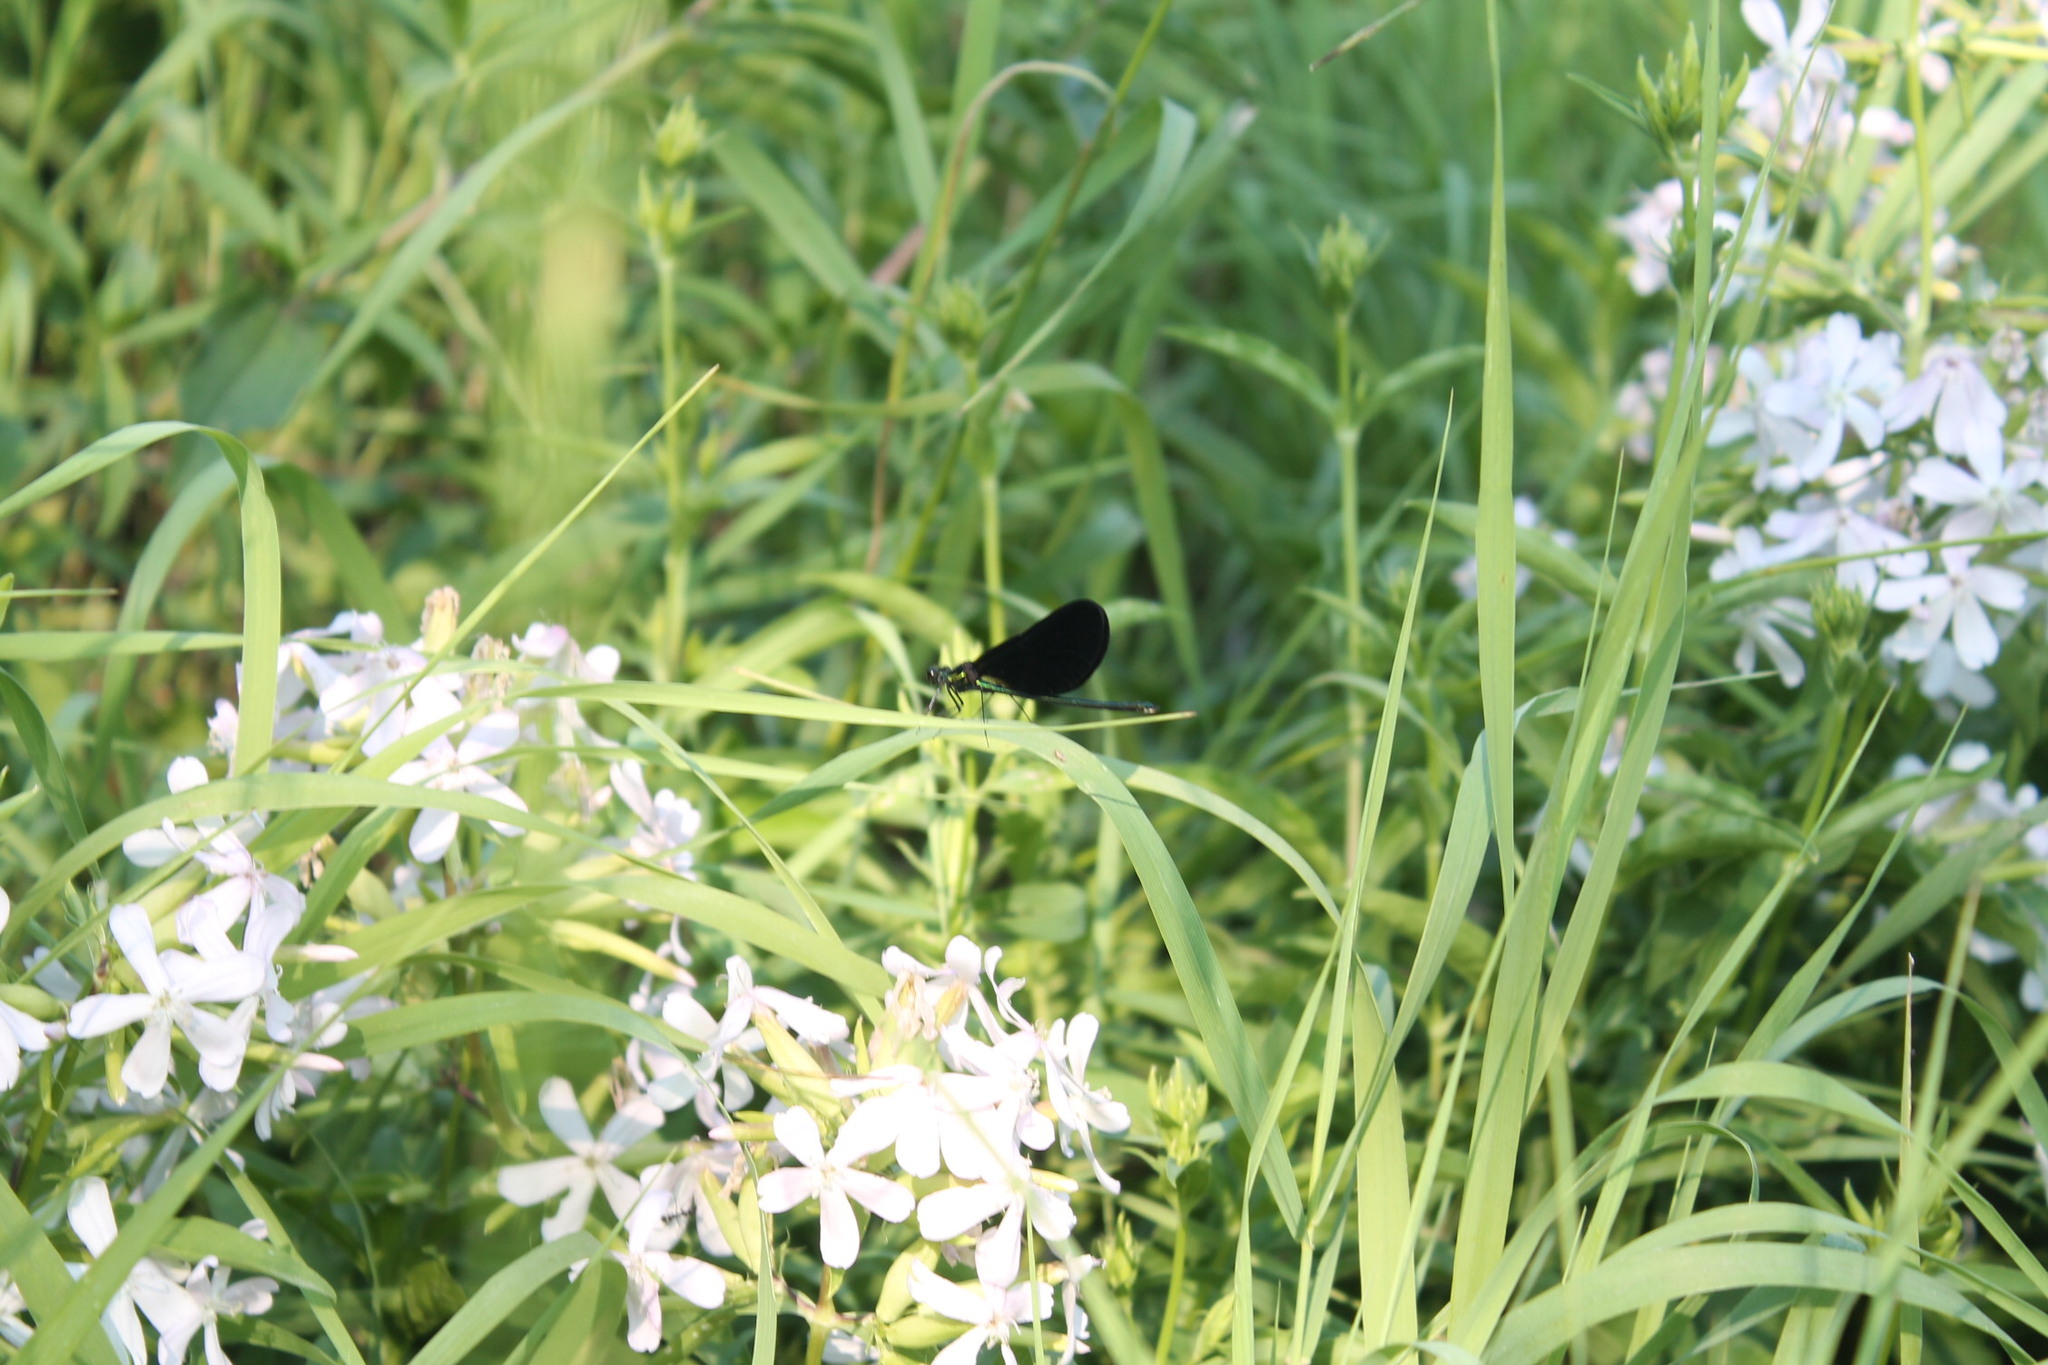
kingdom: Animalia
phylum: Arthropoda
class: Insecta
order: Odonata
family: Calopterygidae
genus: Calopteryx
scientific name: Calopteryx maculata
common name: Ebony jewelwing
